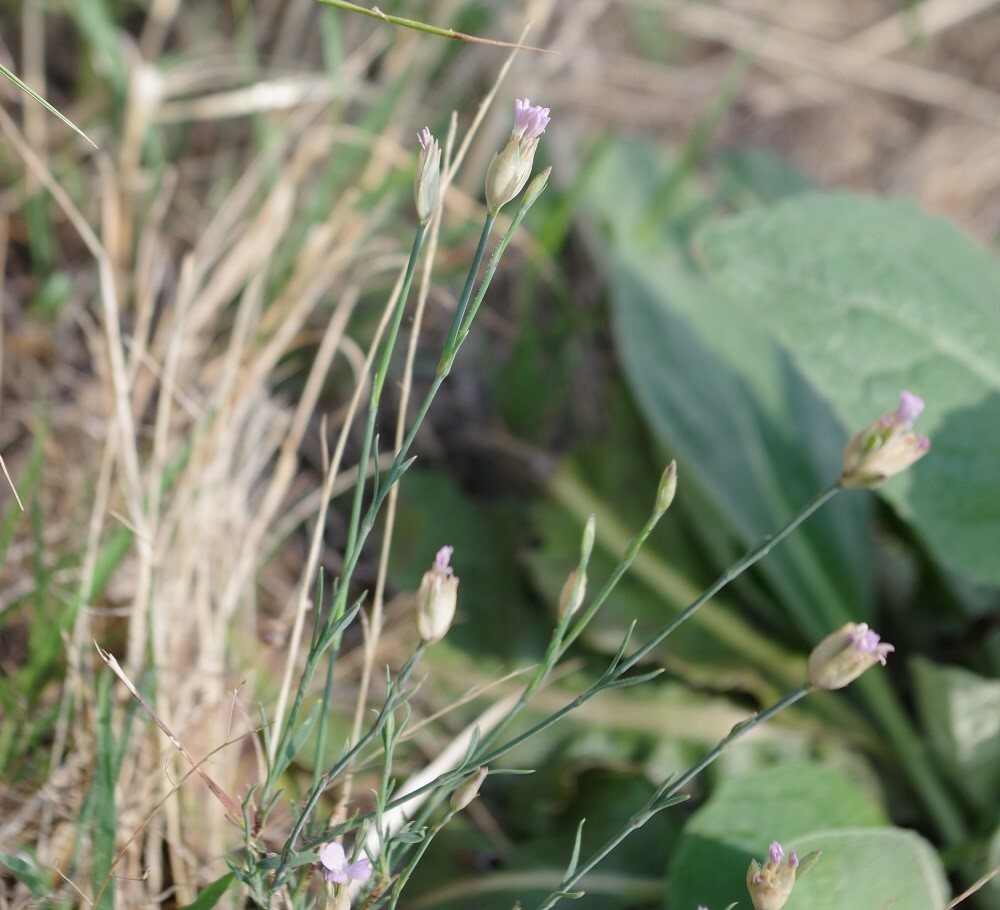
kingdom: Plantae
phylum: Tracheophyta
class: Magnoliopsida
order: Caryophyllales
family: Caryophyllaceae
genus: Petrorhagia
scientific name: Petrorhagia prolifera
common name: Proliferous pink
